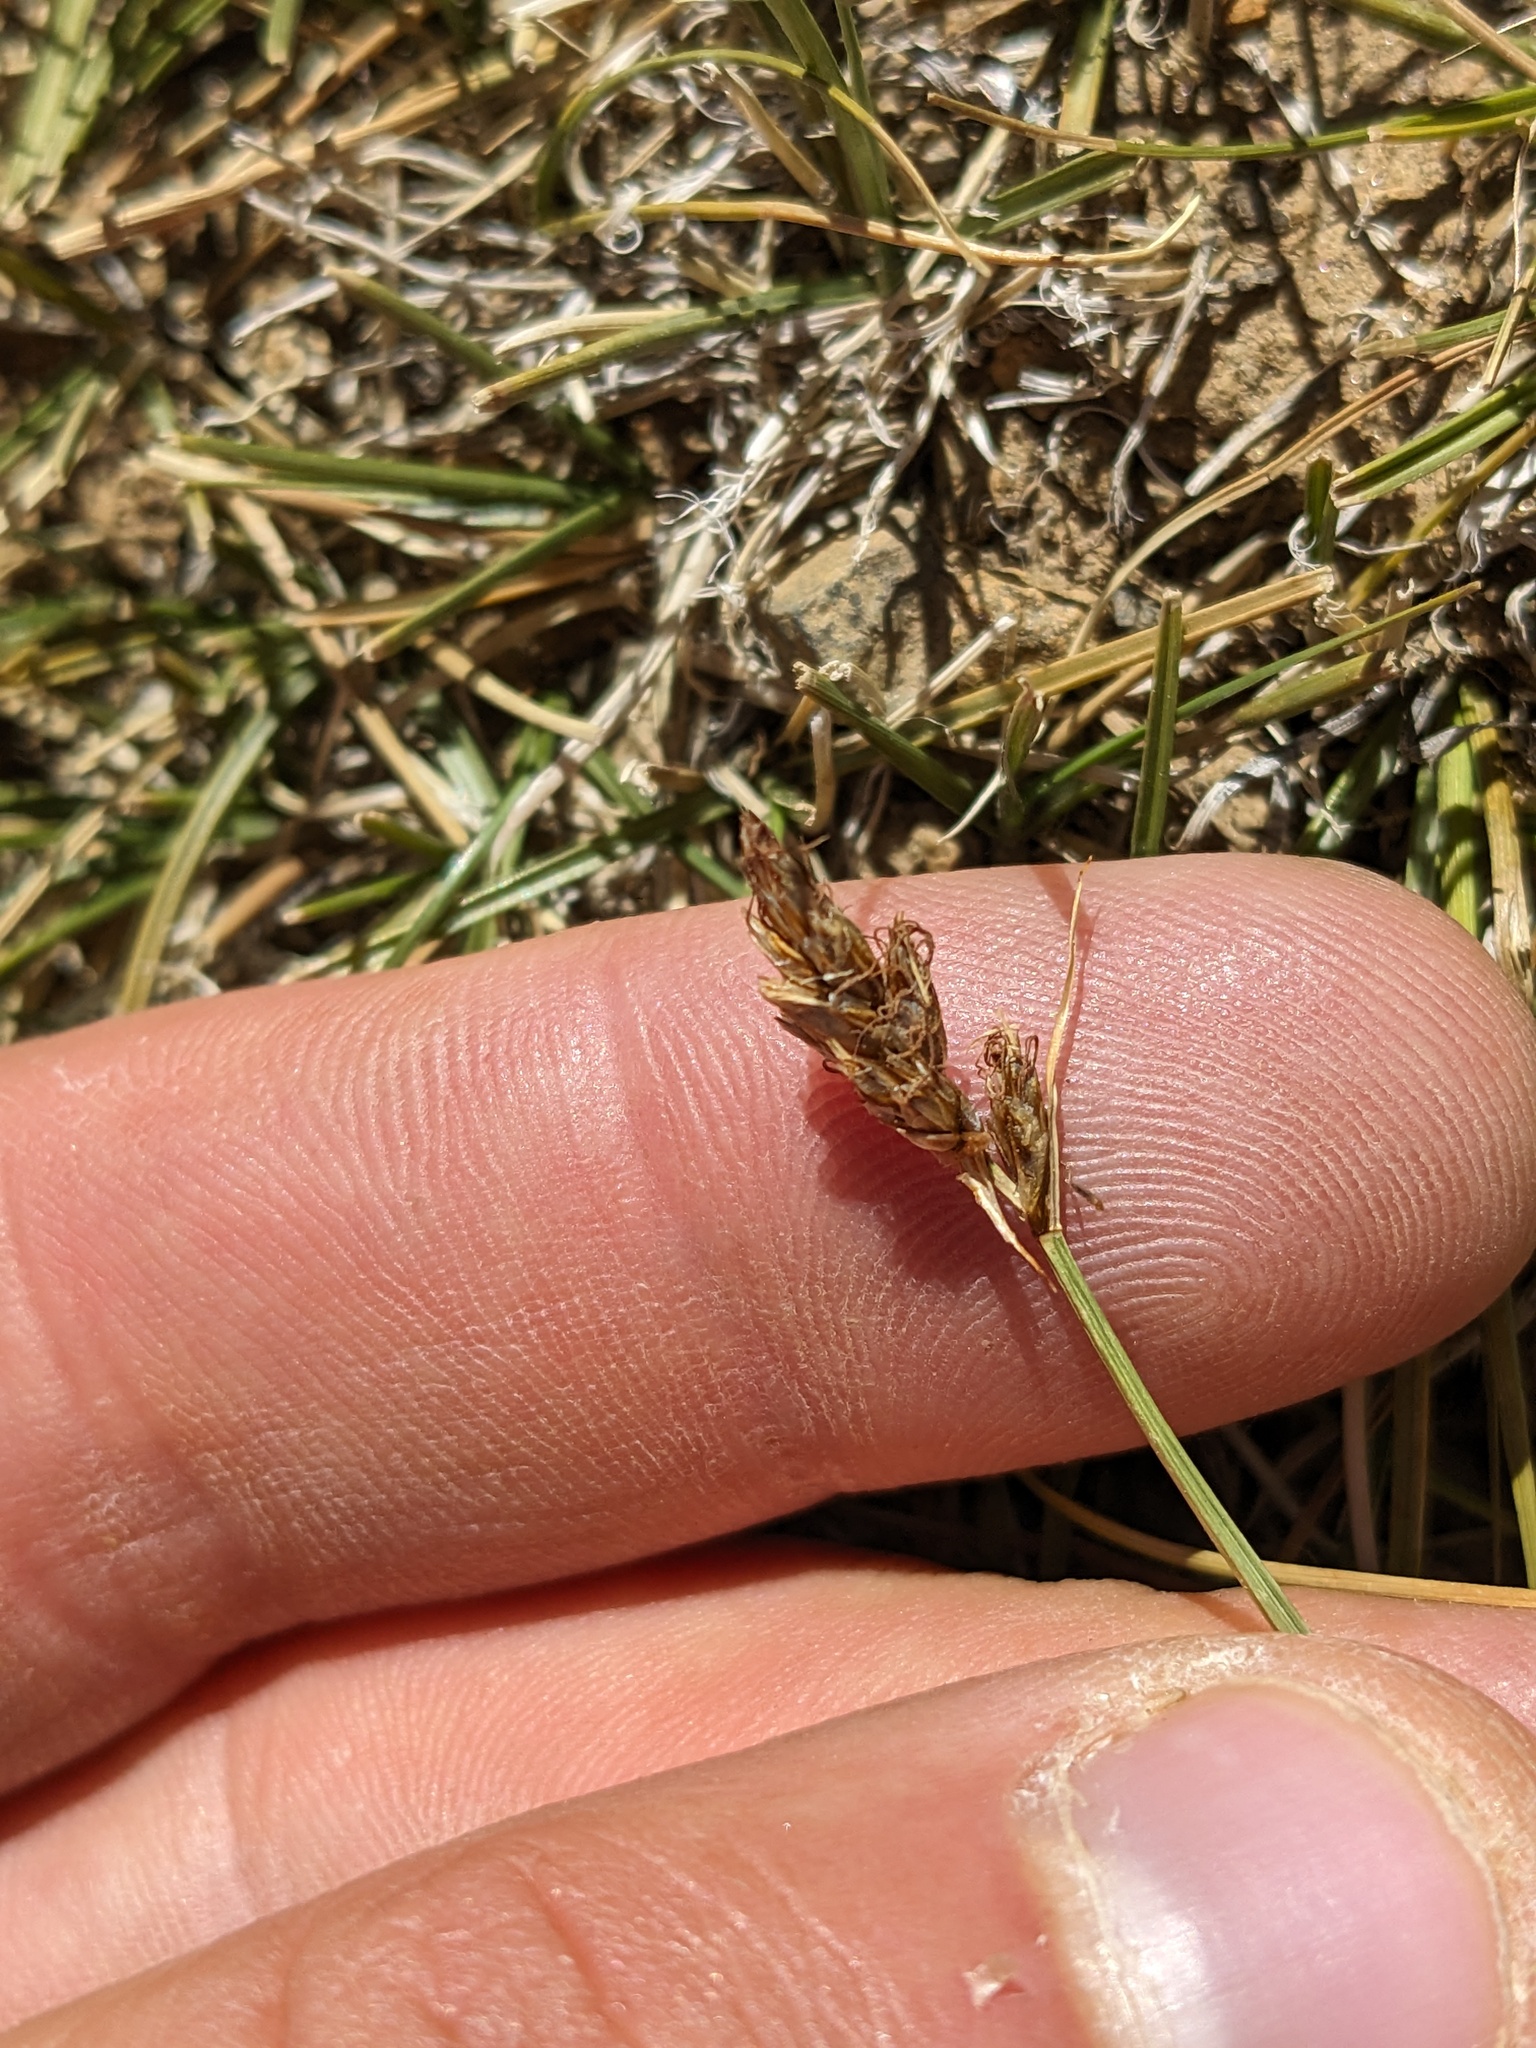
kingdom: Plantae
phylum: Tracheophyta
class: Liliopsida
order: Poales
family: Cyperaceae
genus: Carex
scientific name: Carex duriuscula
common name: Involute-leaved sedge
